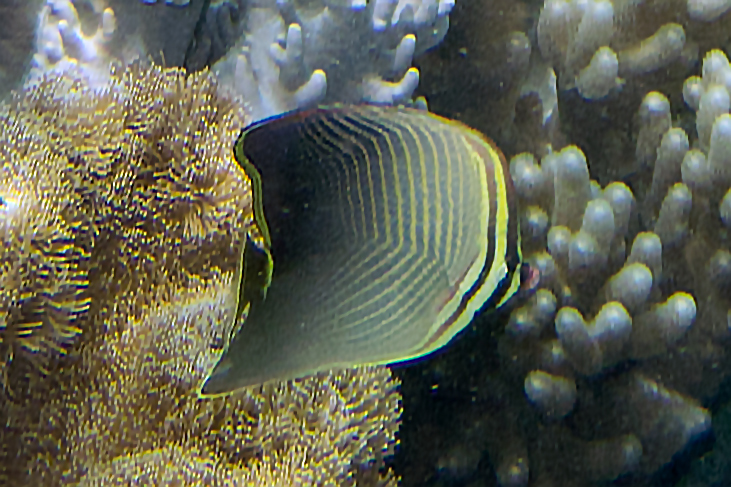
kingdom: Animalia
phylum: Chordata
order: Perciformes
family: Chaetodontidae
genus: Chaetodon
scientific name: Chaetodon baronessa
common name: Triangular butterflyfish
